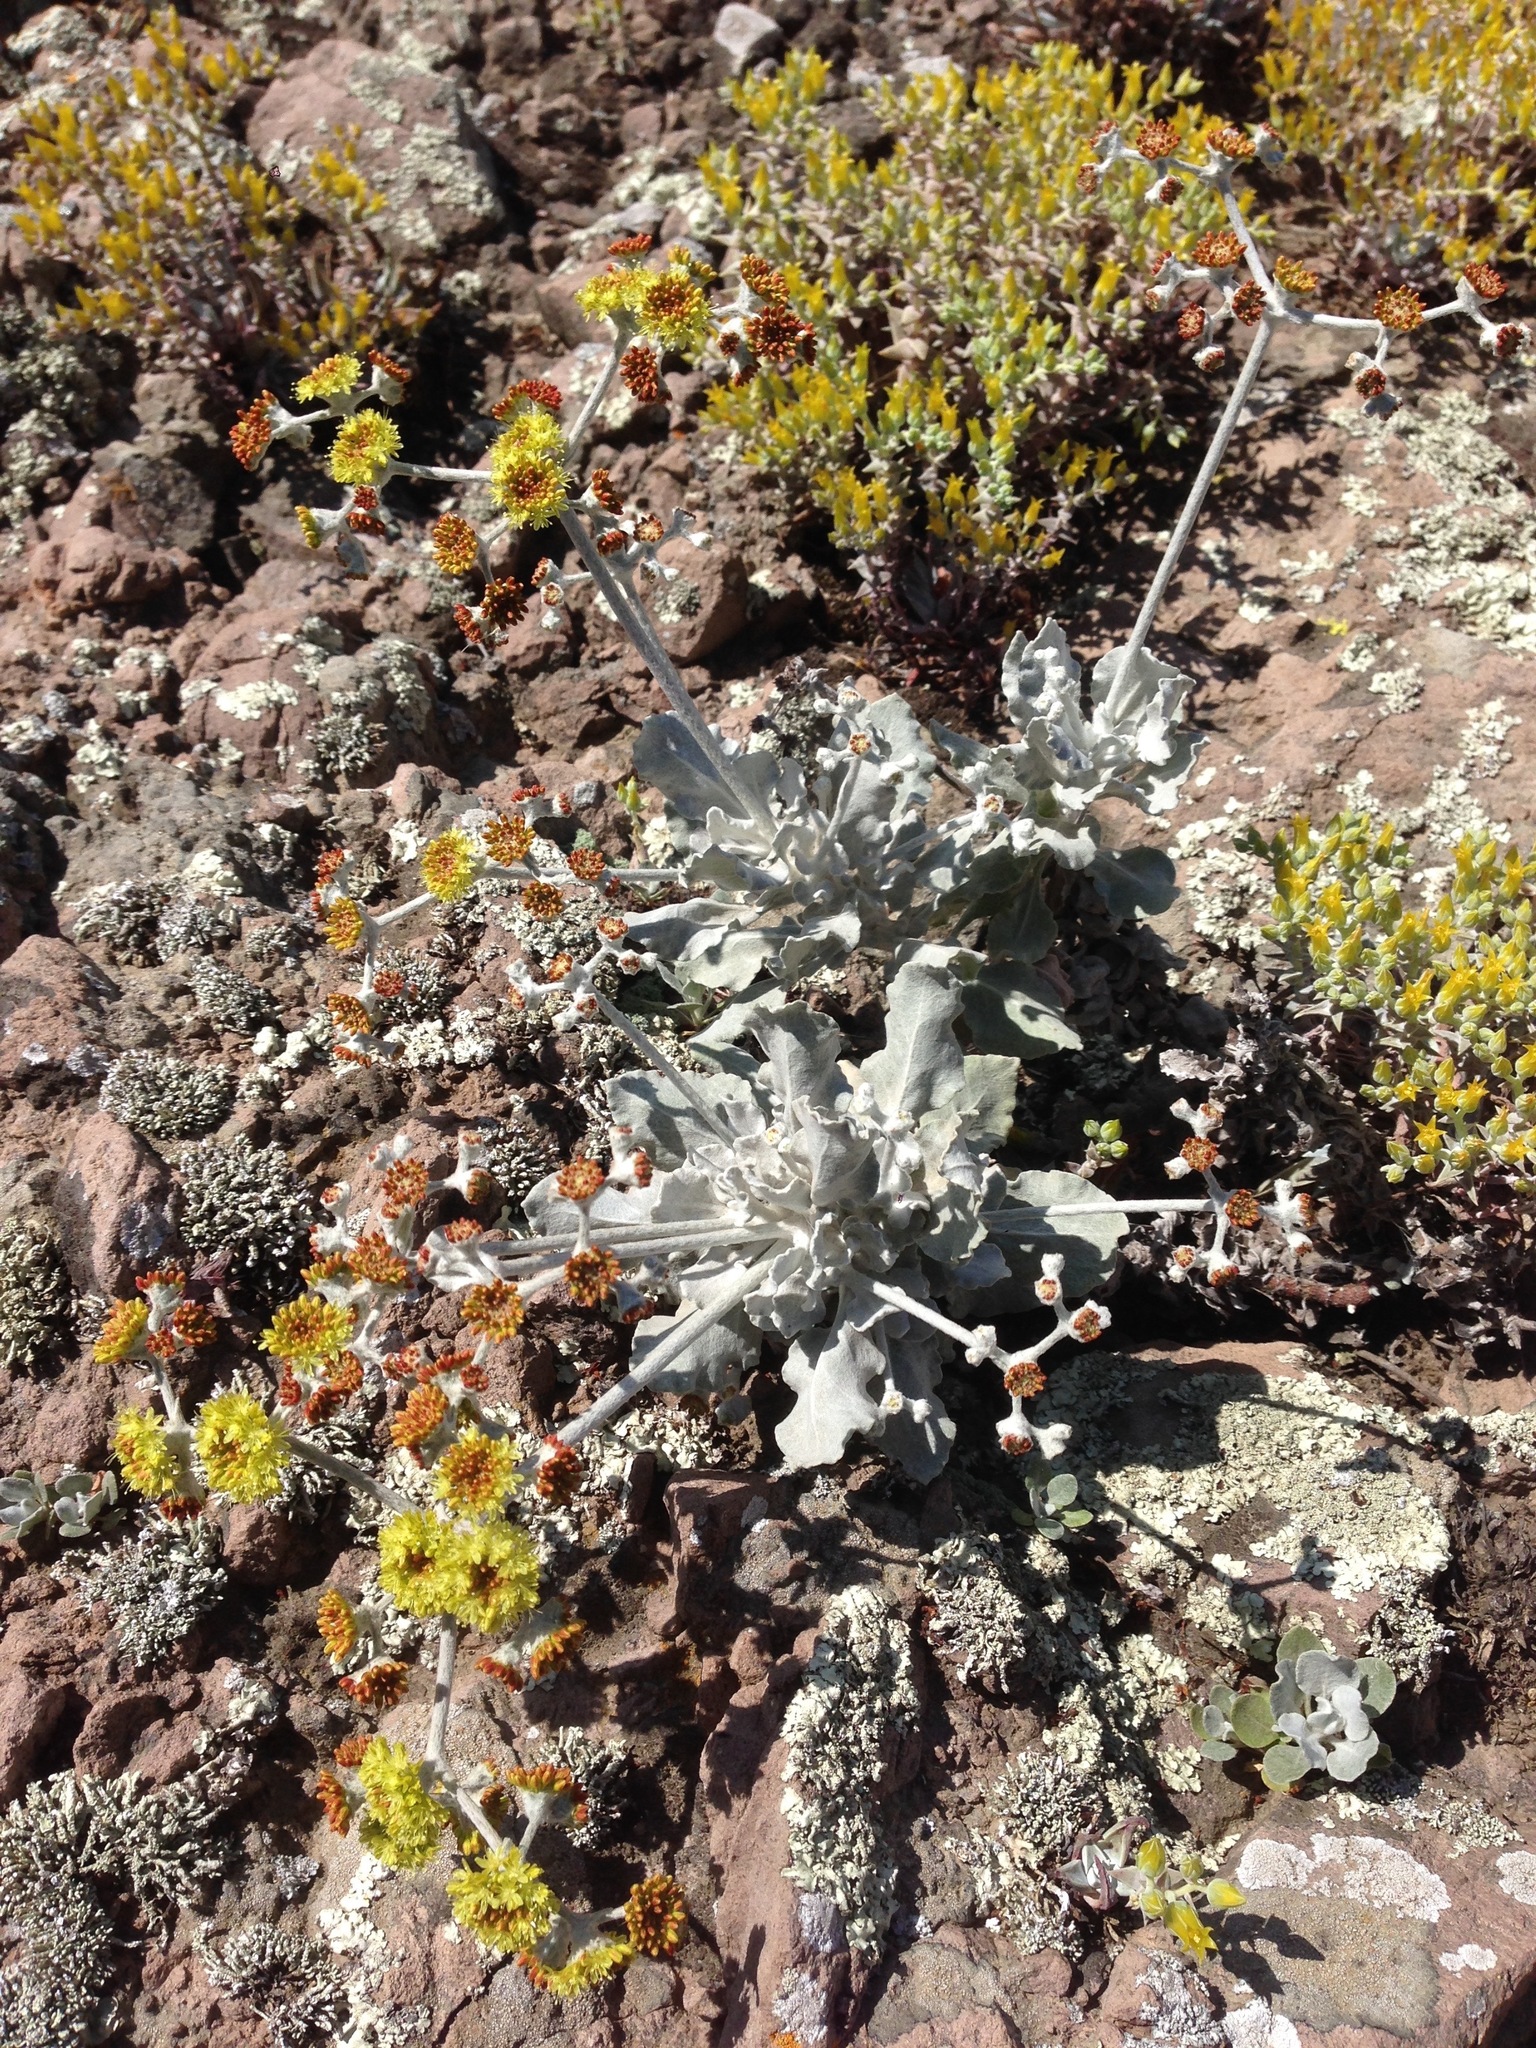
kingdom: Plantae
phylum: Tracheophyta
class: Magnoliopsida
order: Caryophyllales
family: Polygonaceae
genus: Eriogonum
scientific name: Eriogonum crocatum
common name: Saffron wild buckwheat
